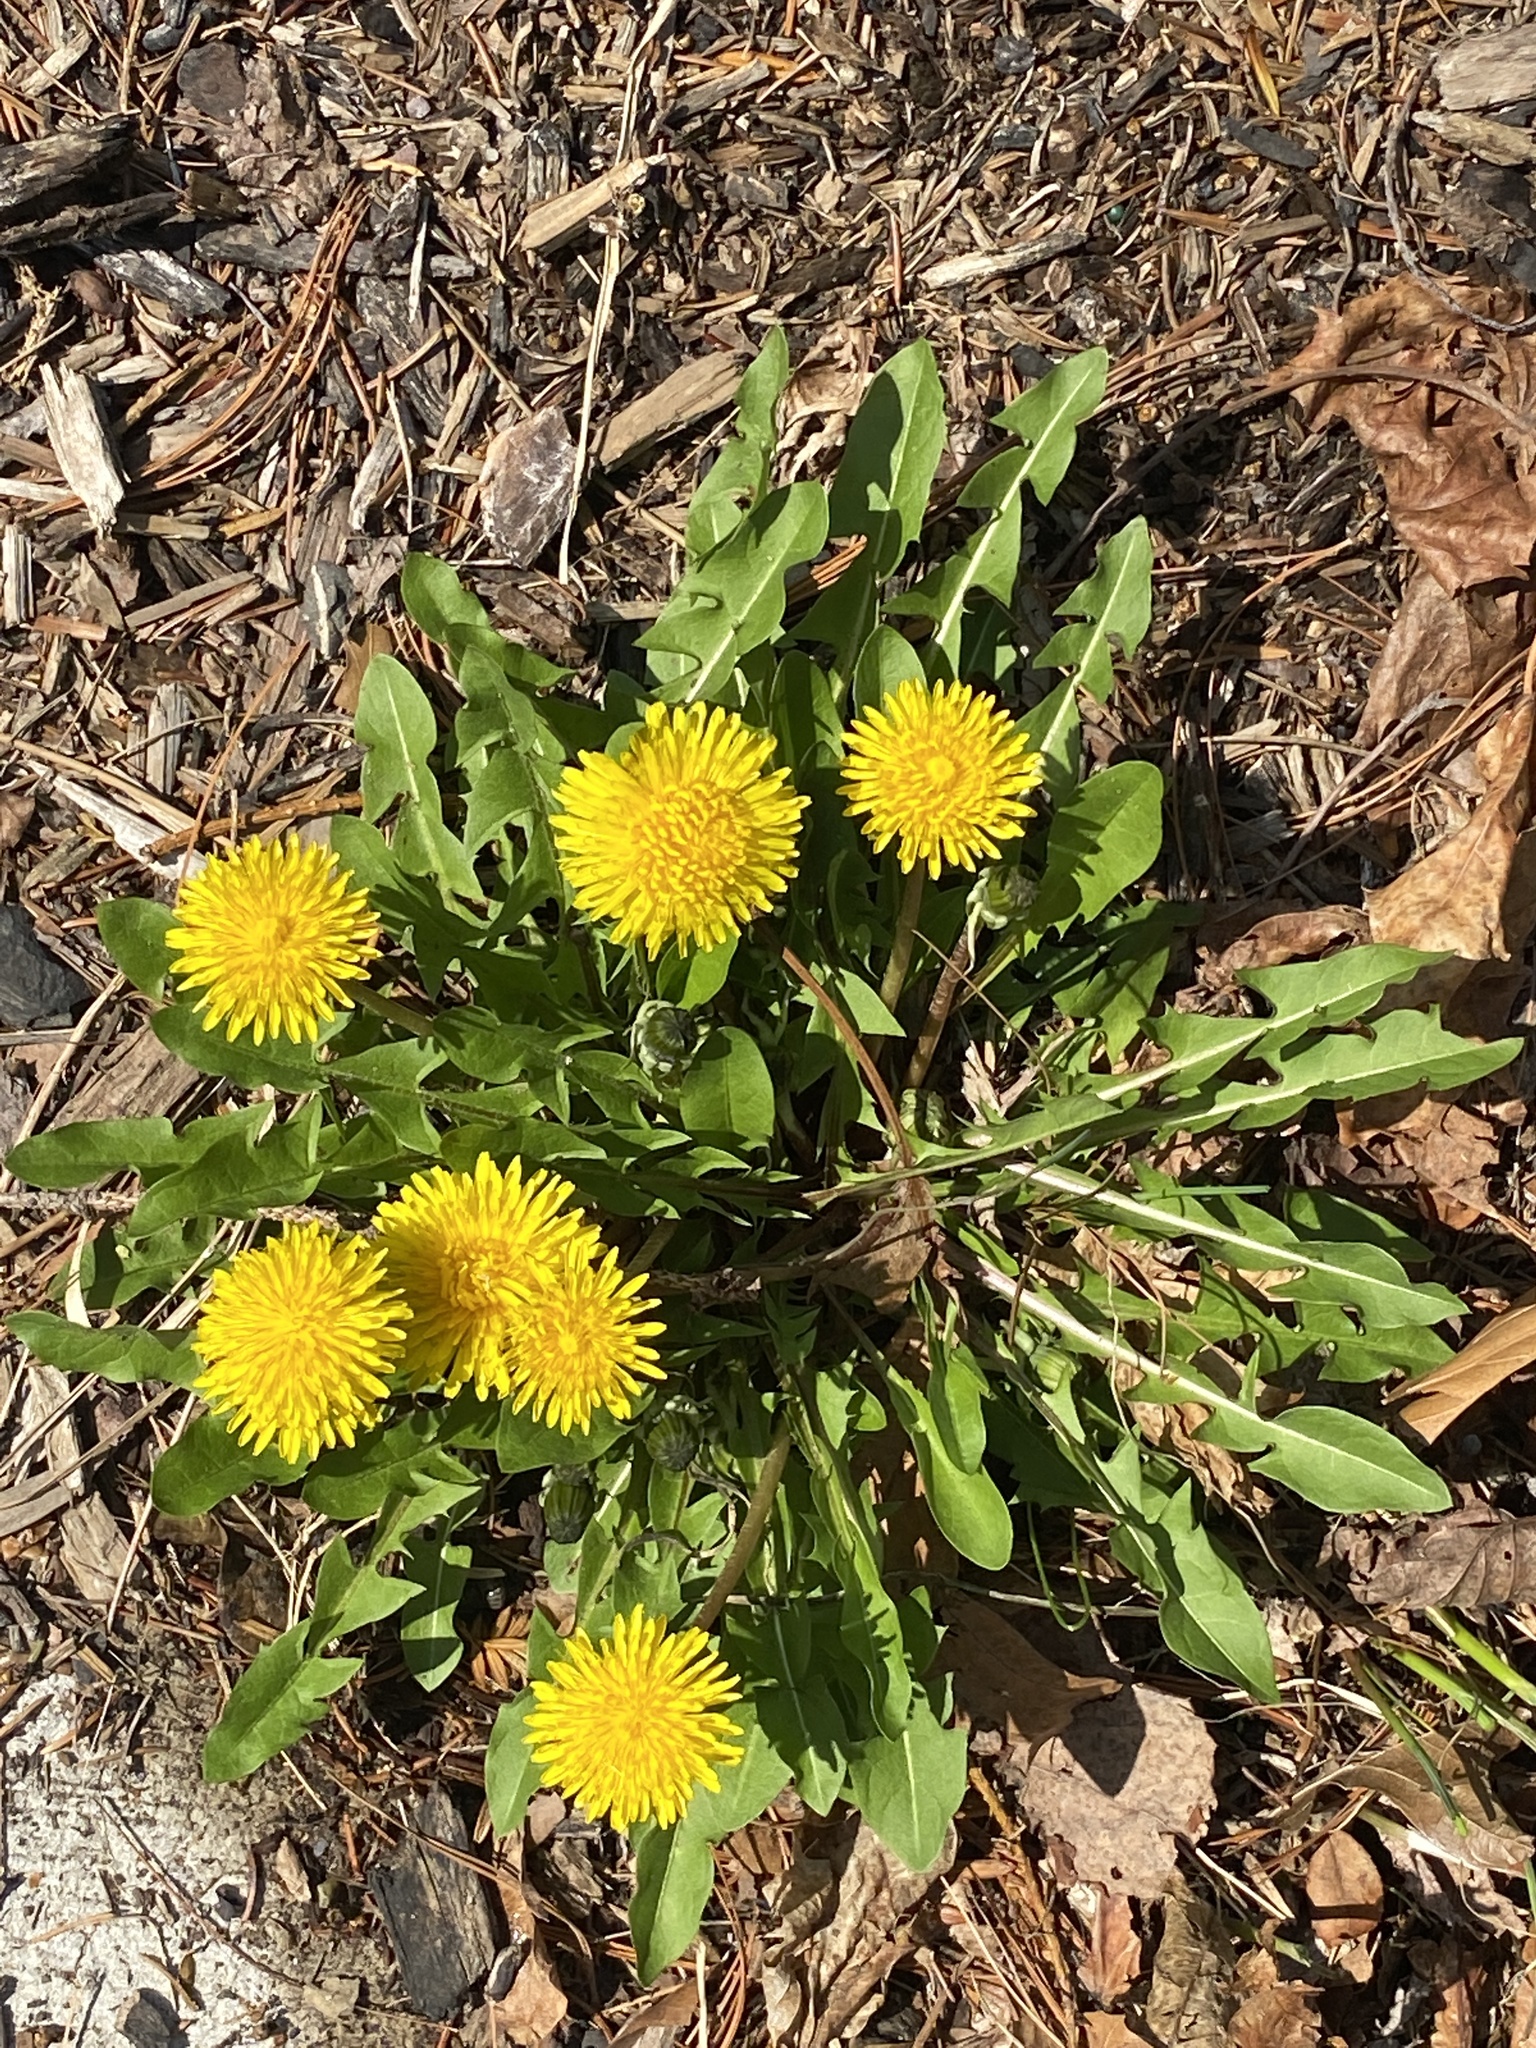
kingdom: Plantae
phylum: Tracheophyta
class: Magnoliopsida
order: Asterales
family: Asteraceae
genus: Taraxacum
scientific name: Taraxacum
